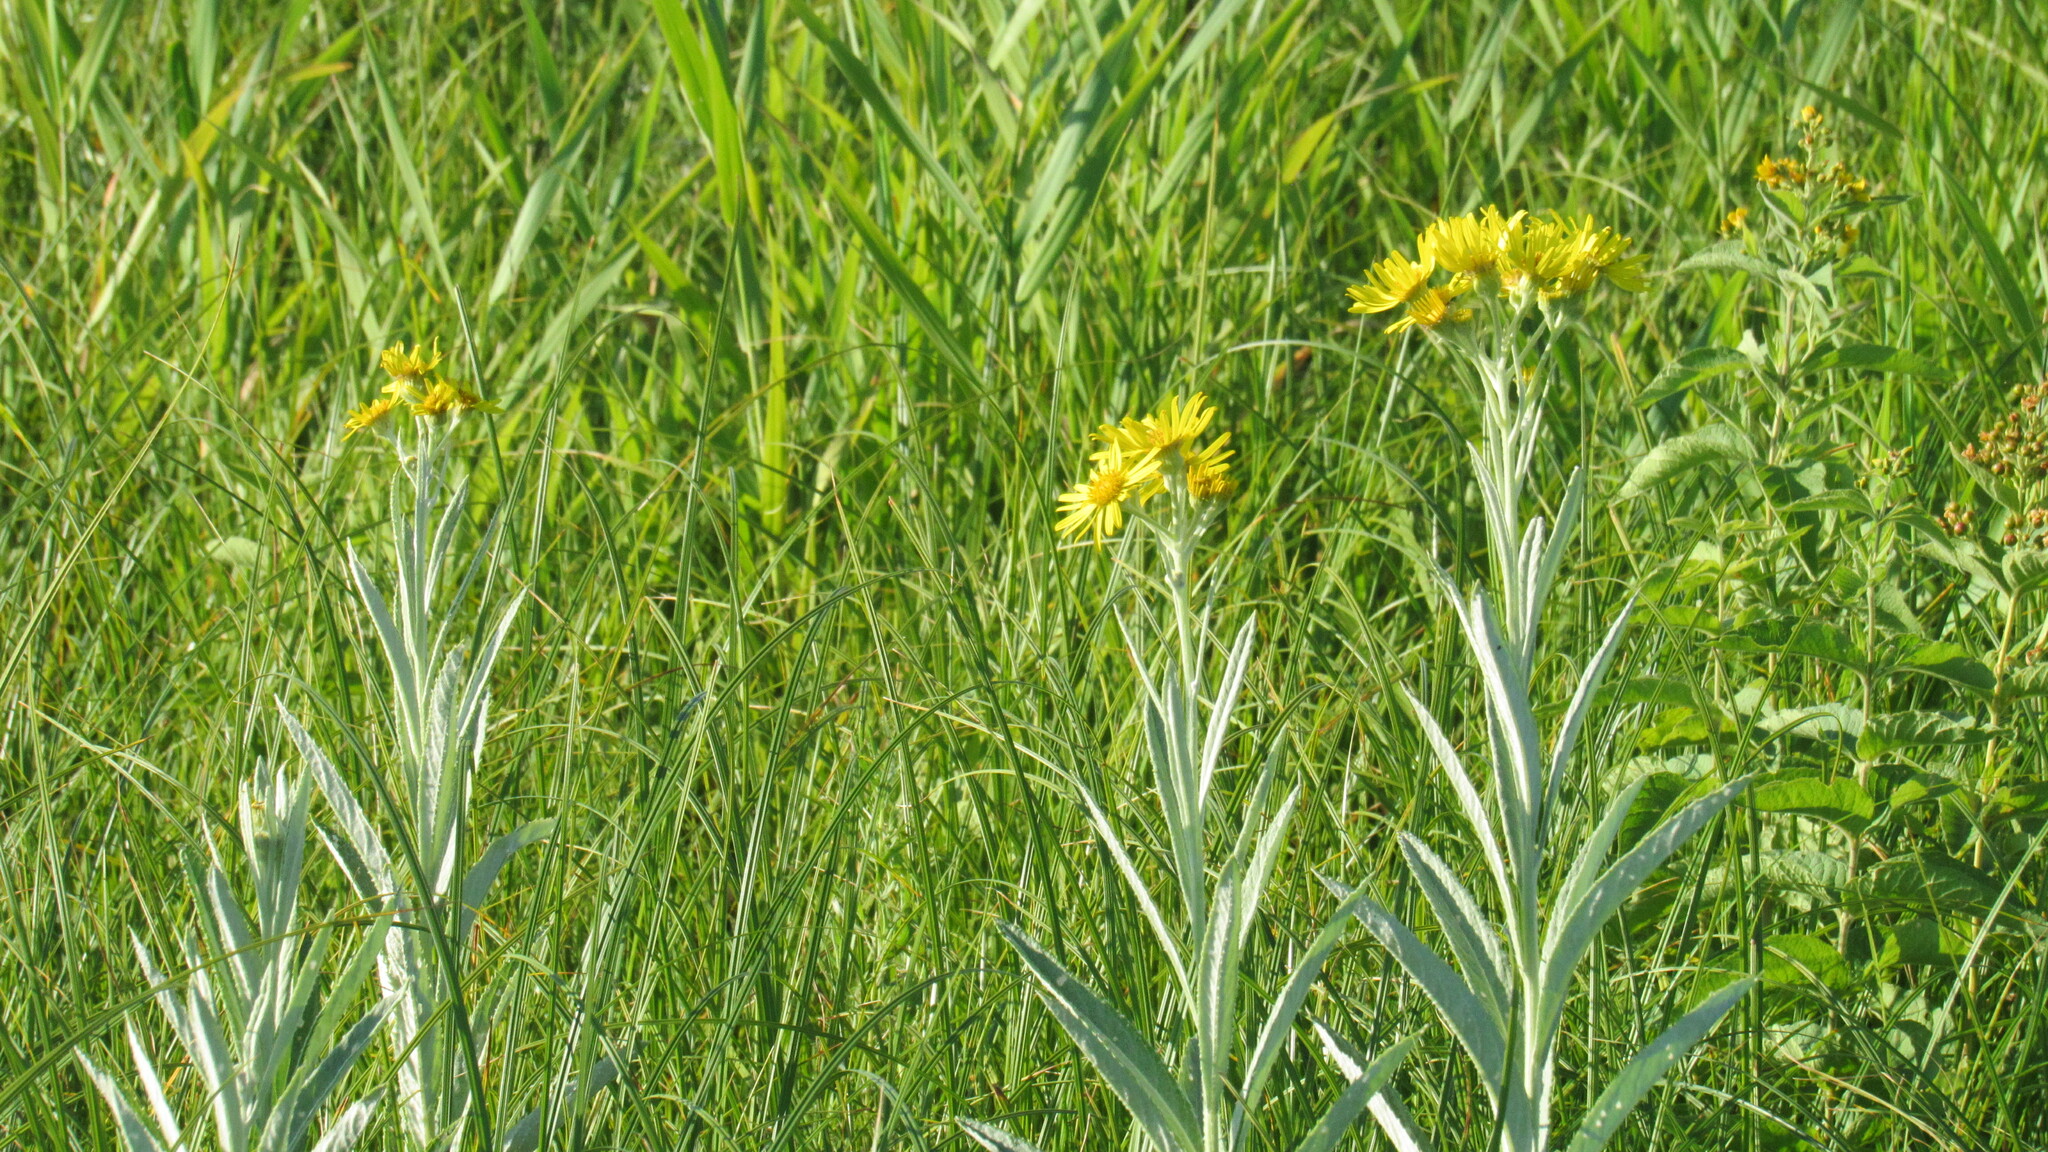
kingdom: Plantae
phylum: Tracheophyta
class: Magnoliopsida
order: Asterales
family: Asteraceae
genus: Jacobaea
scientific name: Jacobaea paludosa
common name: Fen ragwort
